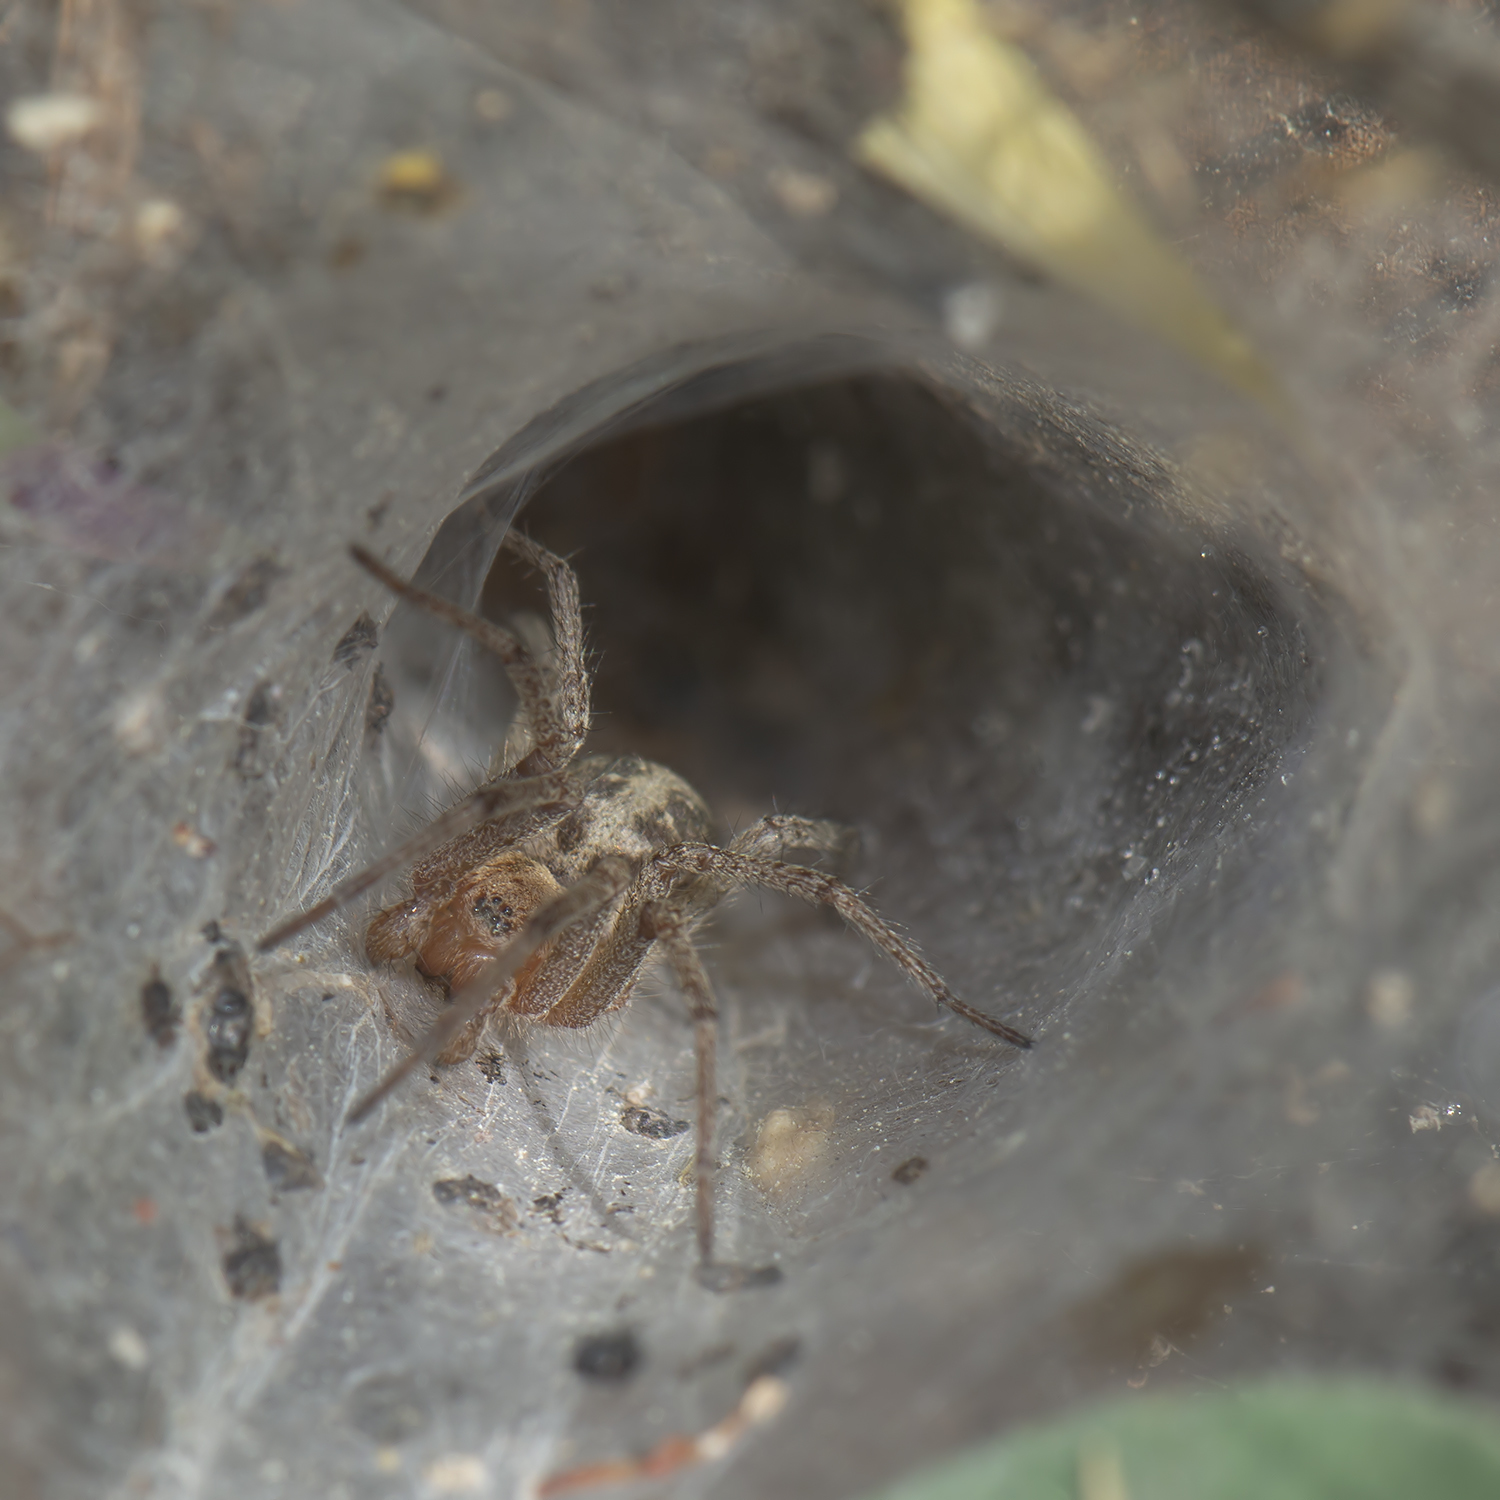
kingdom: Animalia
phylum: Arthropoda
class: Arachnida
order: Araneae
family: Agelenidae
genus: Agelena
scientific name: Agelena labyrinthica
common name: Labyrinth spider
